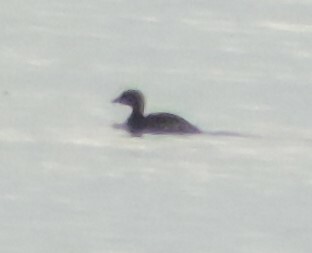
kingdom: Animalia
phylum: Chordata
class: Aves
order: Podicipediformes
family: Podicipedidae
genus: Podilymbus
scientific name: Podilymbus podiceps
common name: Pied-billed grebe
